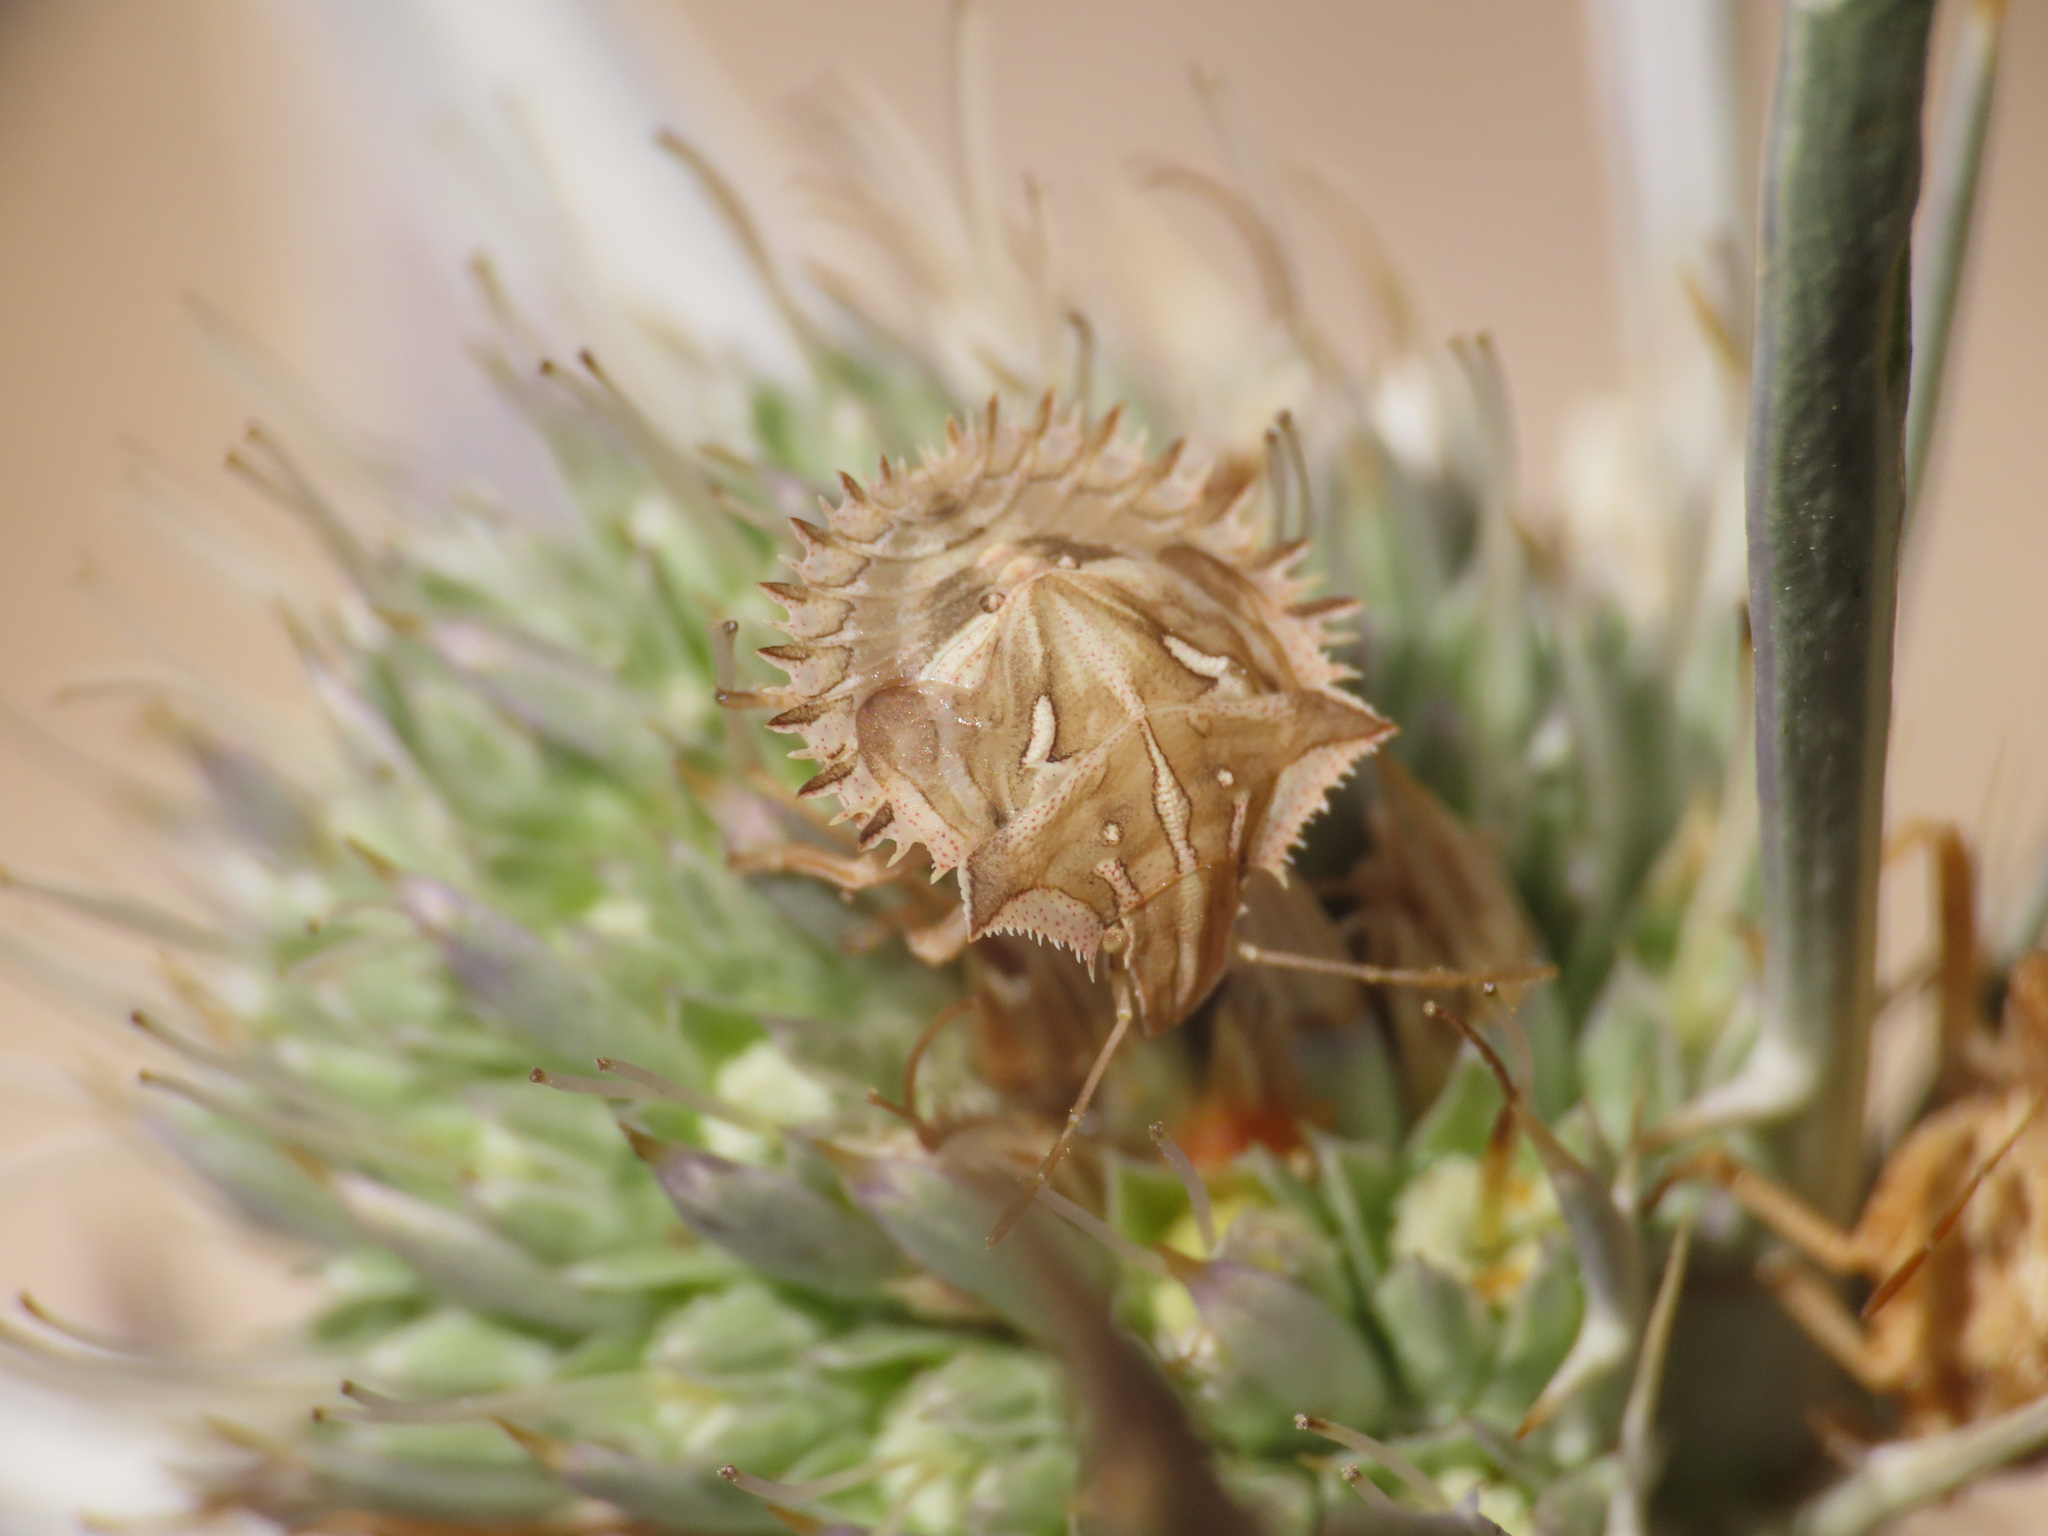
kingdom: Animalia
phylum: Arthropoda
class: Insecta
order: Hemiptera
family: Pentatomidae
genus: Ancyrosoma
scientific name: Ancyrosoma leucogrammes
